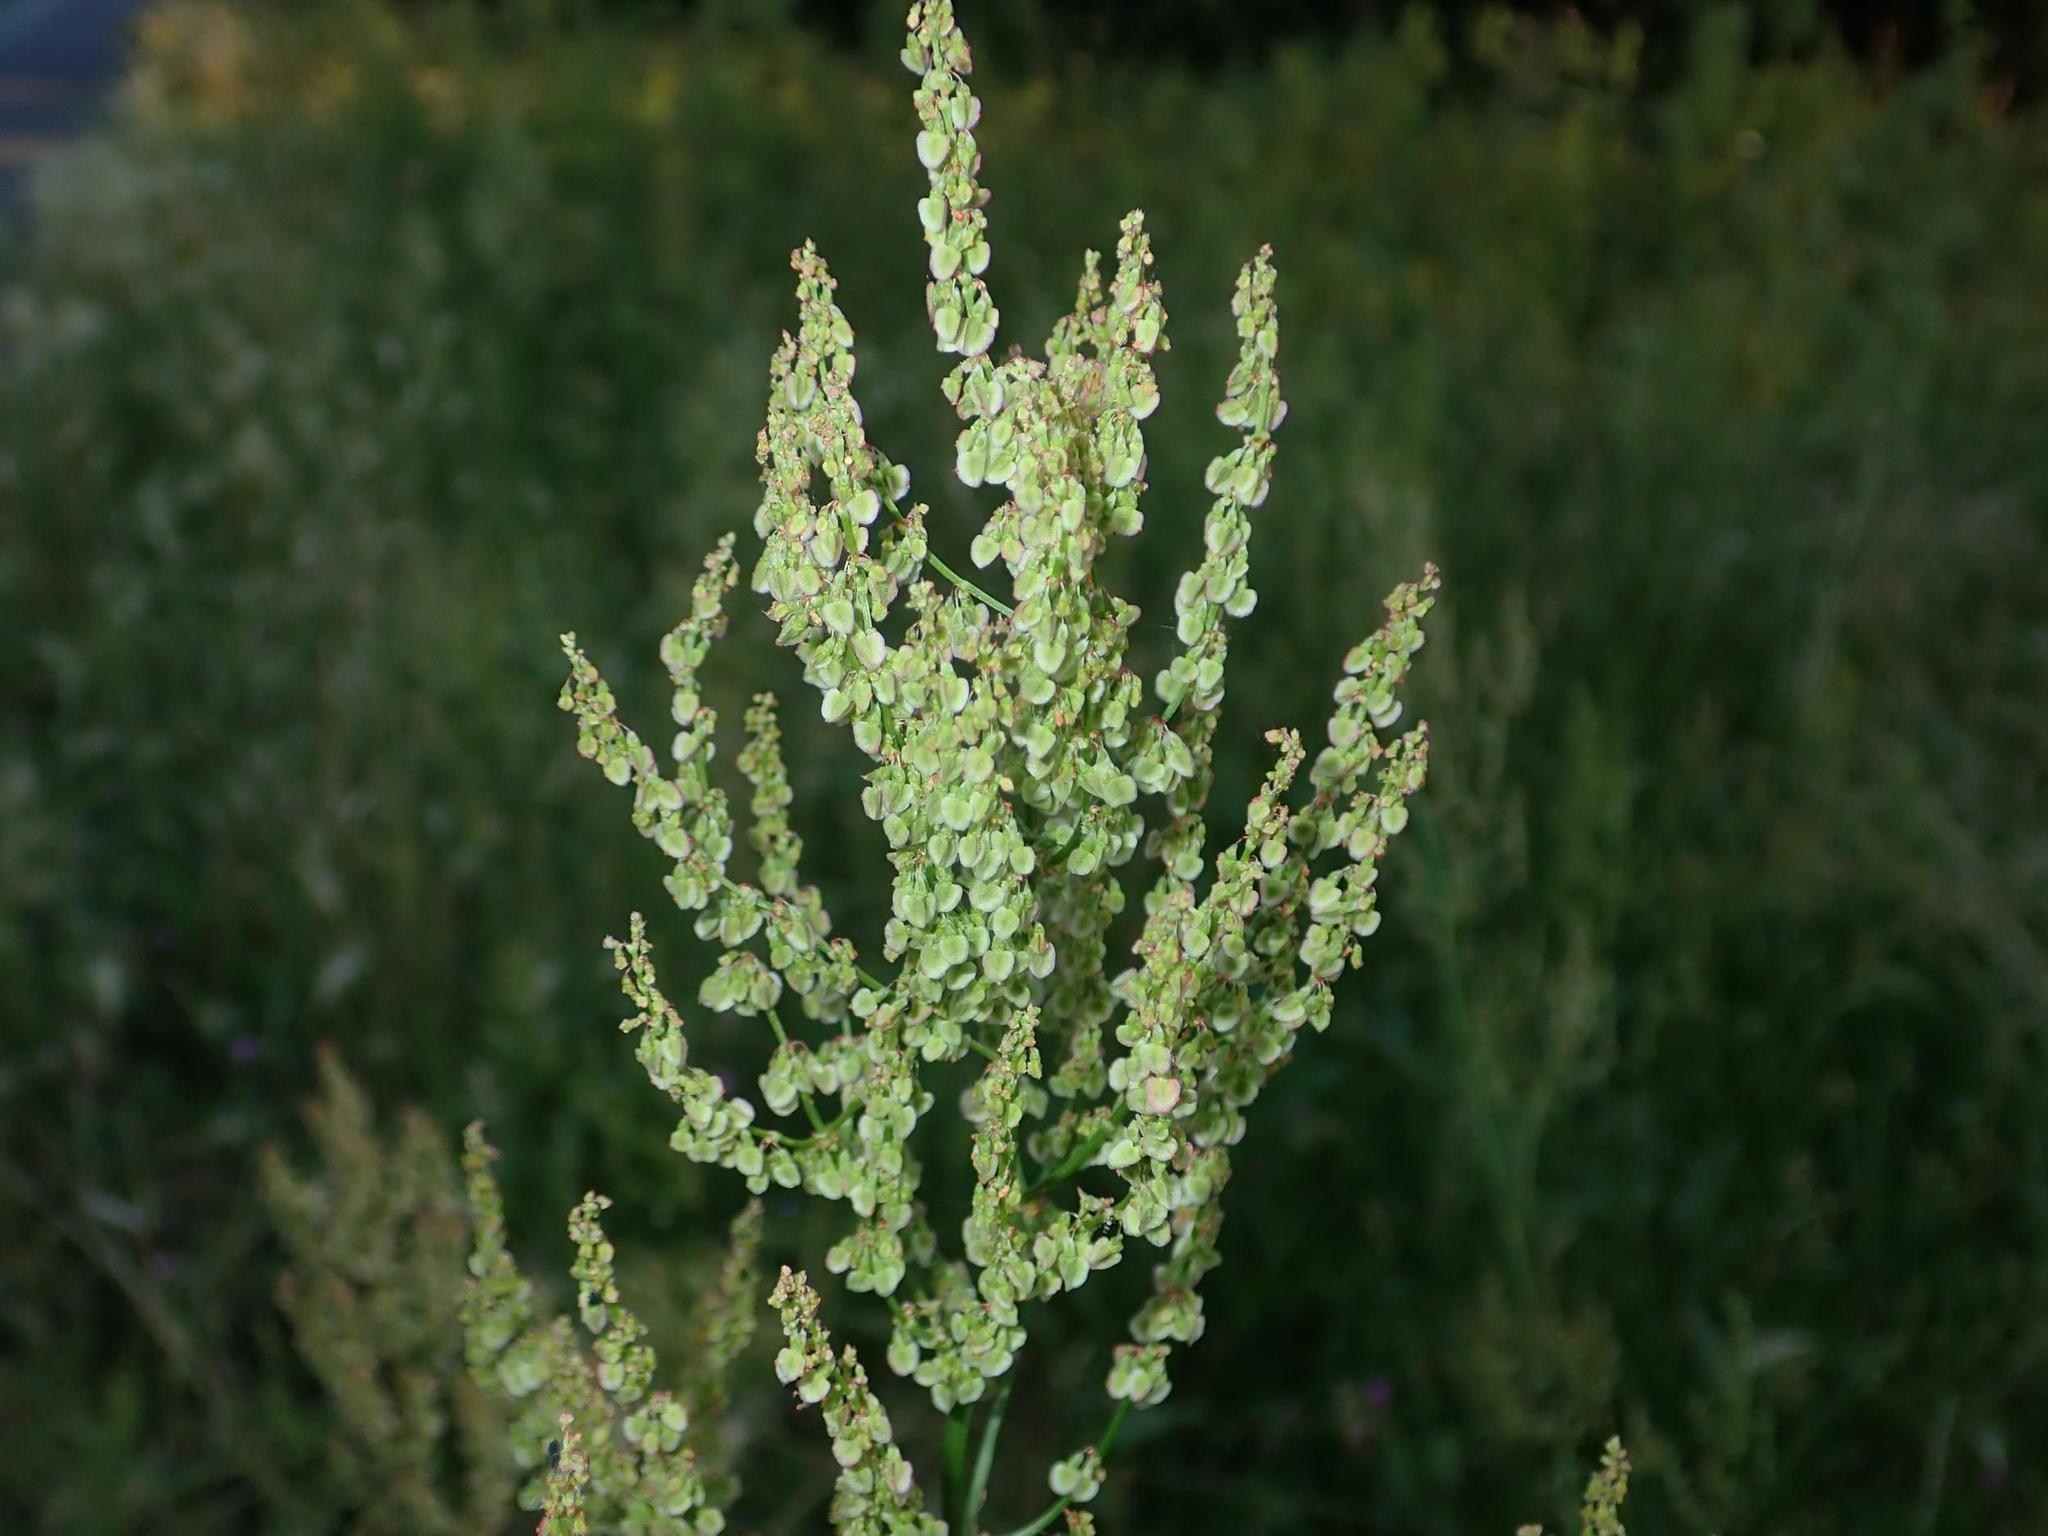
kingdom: Plantae
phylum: Tracheophyta
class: Magnoliopsida
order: Caryophyllales
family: Polygonaceae
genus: Rumex
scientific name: Rumex acetosa
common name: Garden sorrel
